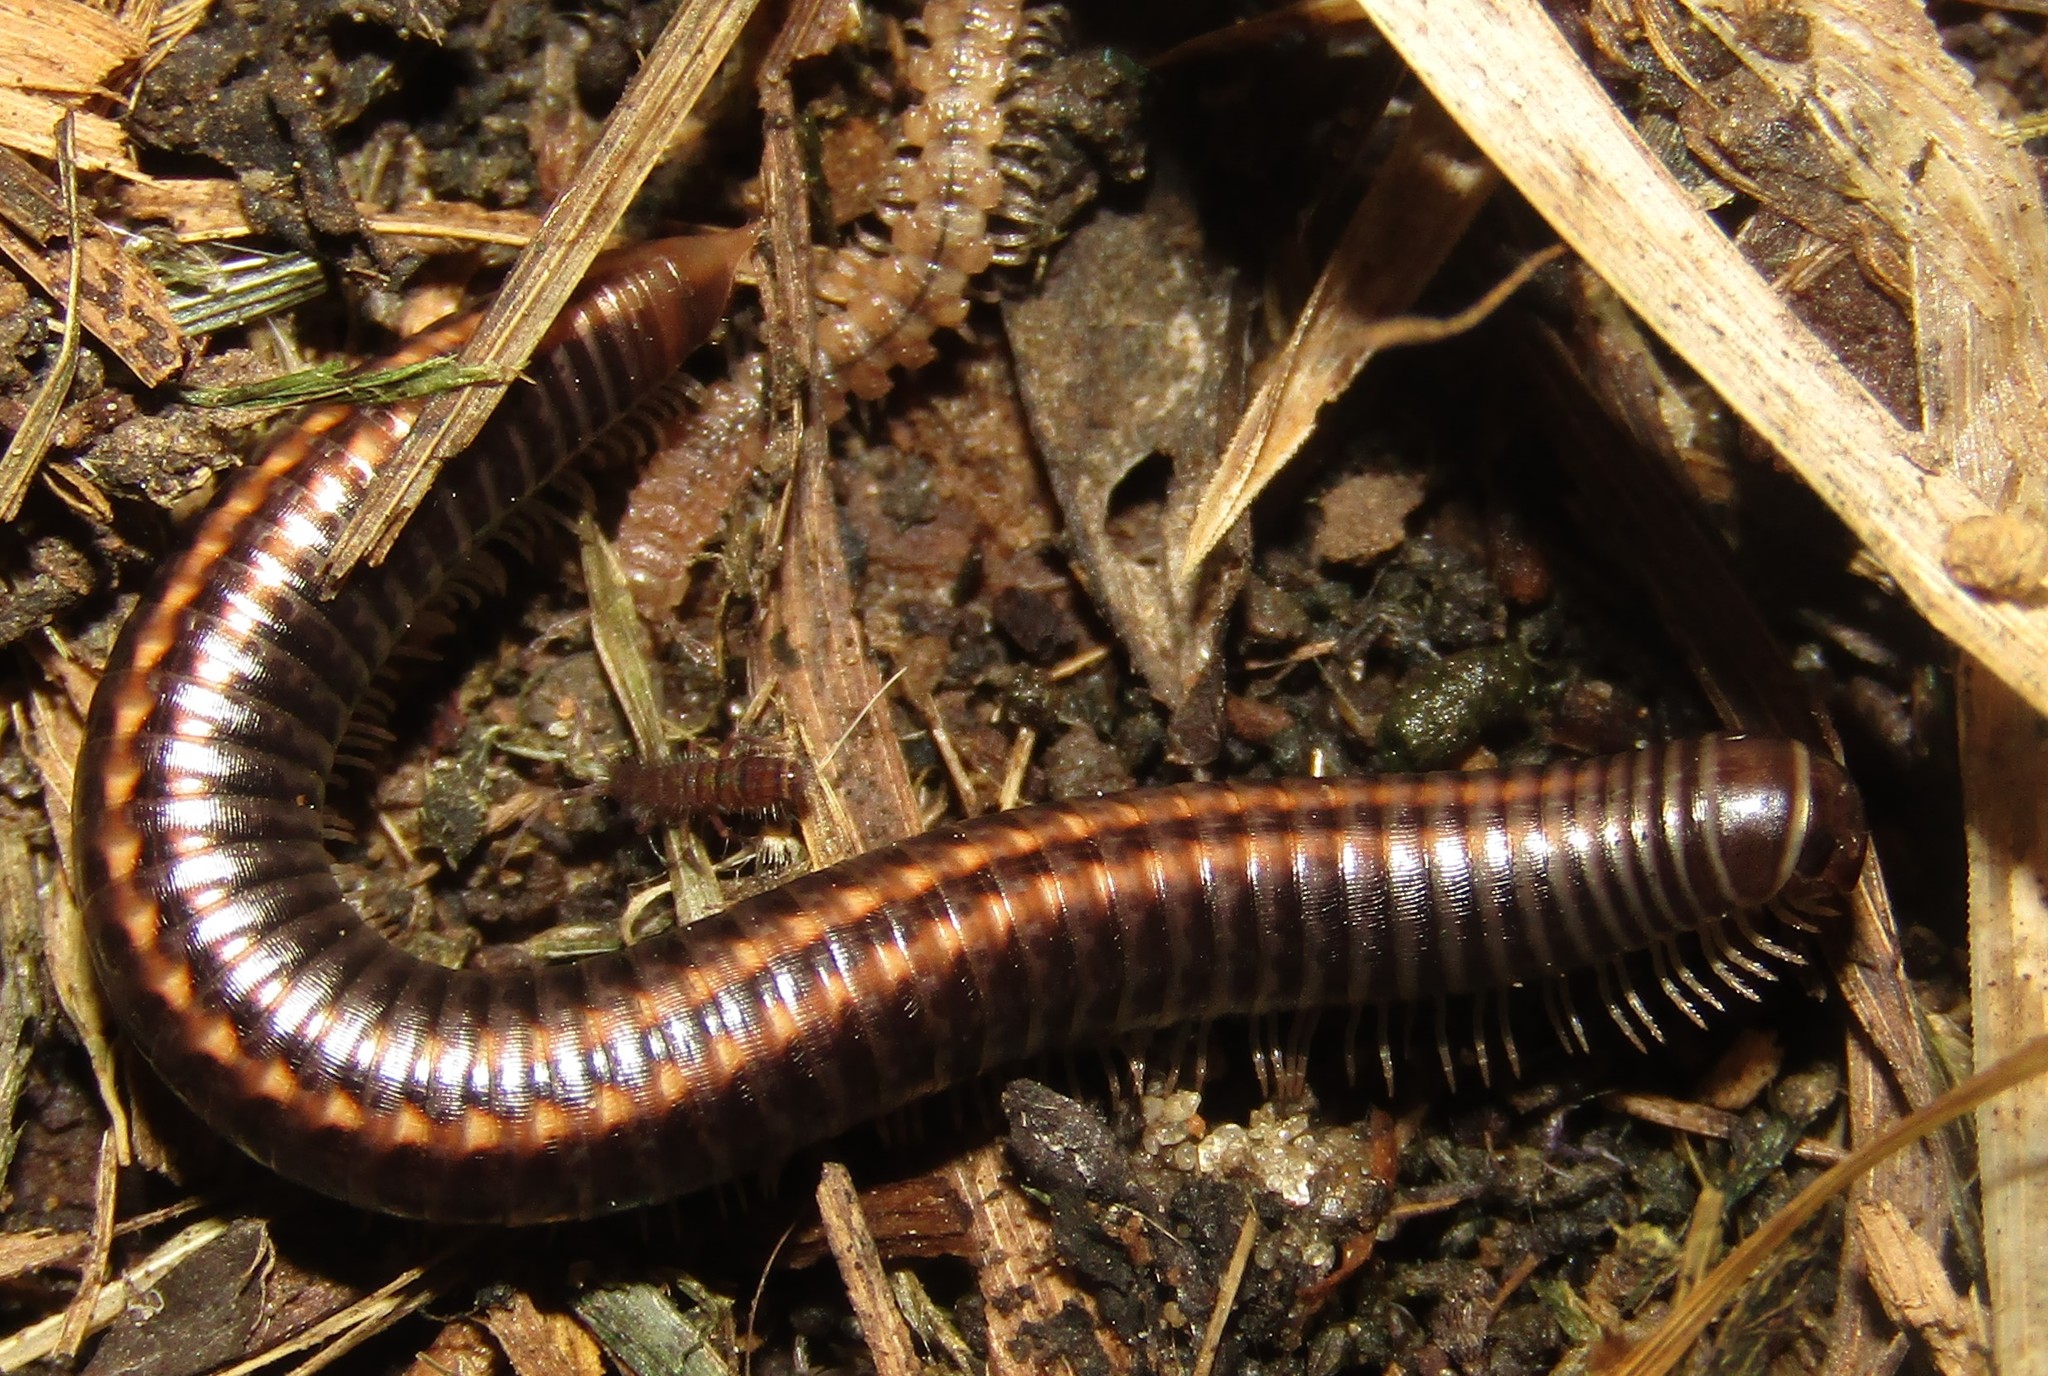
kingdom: Animalia
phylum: Arthropoda
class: Diplopoda
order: Julida
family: Julidae
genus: Ommatoiulus
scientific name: Ommatoiulus sabulosus
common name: Striped millipede
